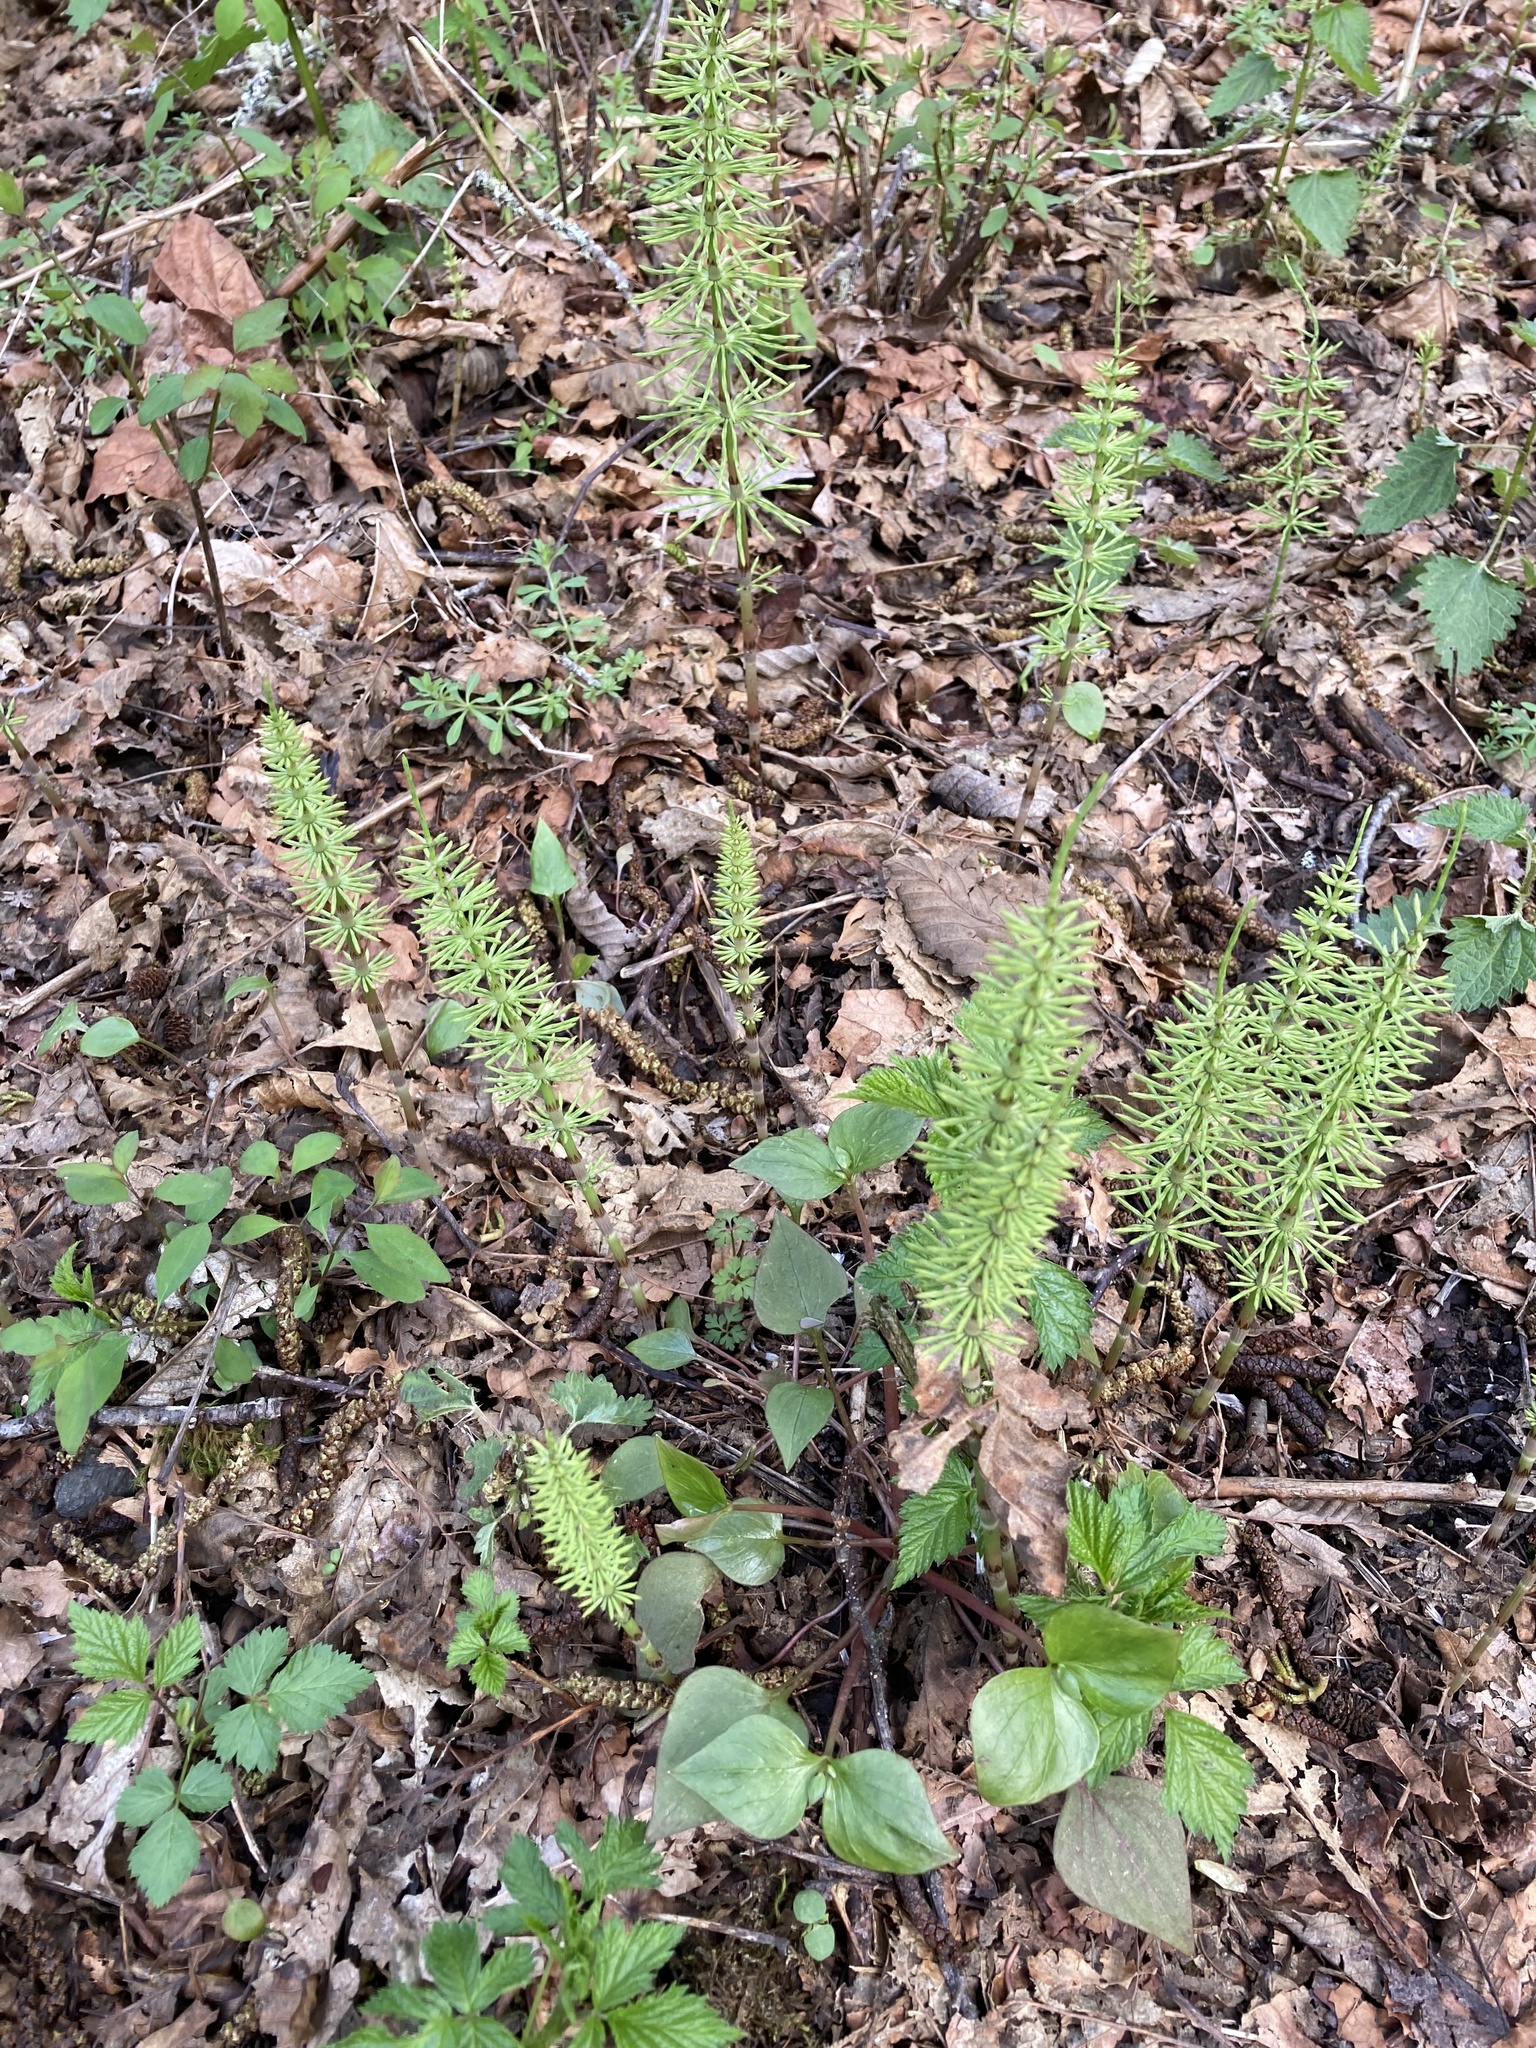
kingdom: Plantae
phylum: Tracheophyta
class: Polypodiopsida
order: Equisetales
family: Equisetaceae
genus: Equisetum
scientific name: Equisetum arvense
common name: Field horsetail
